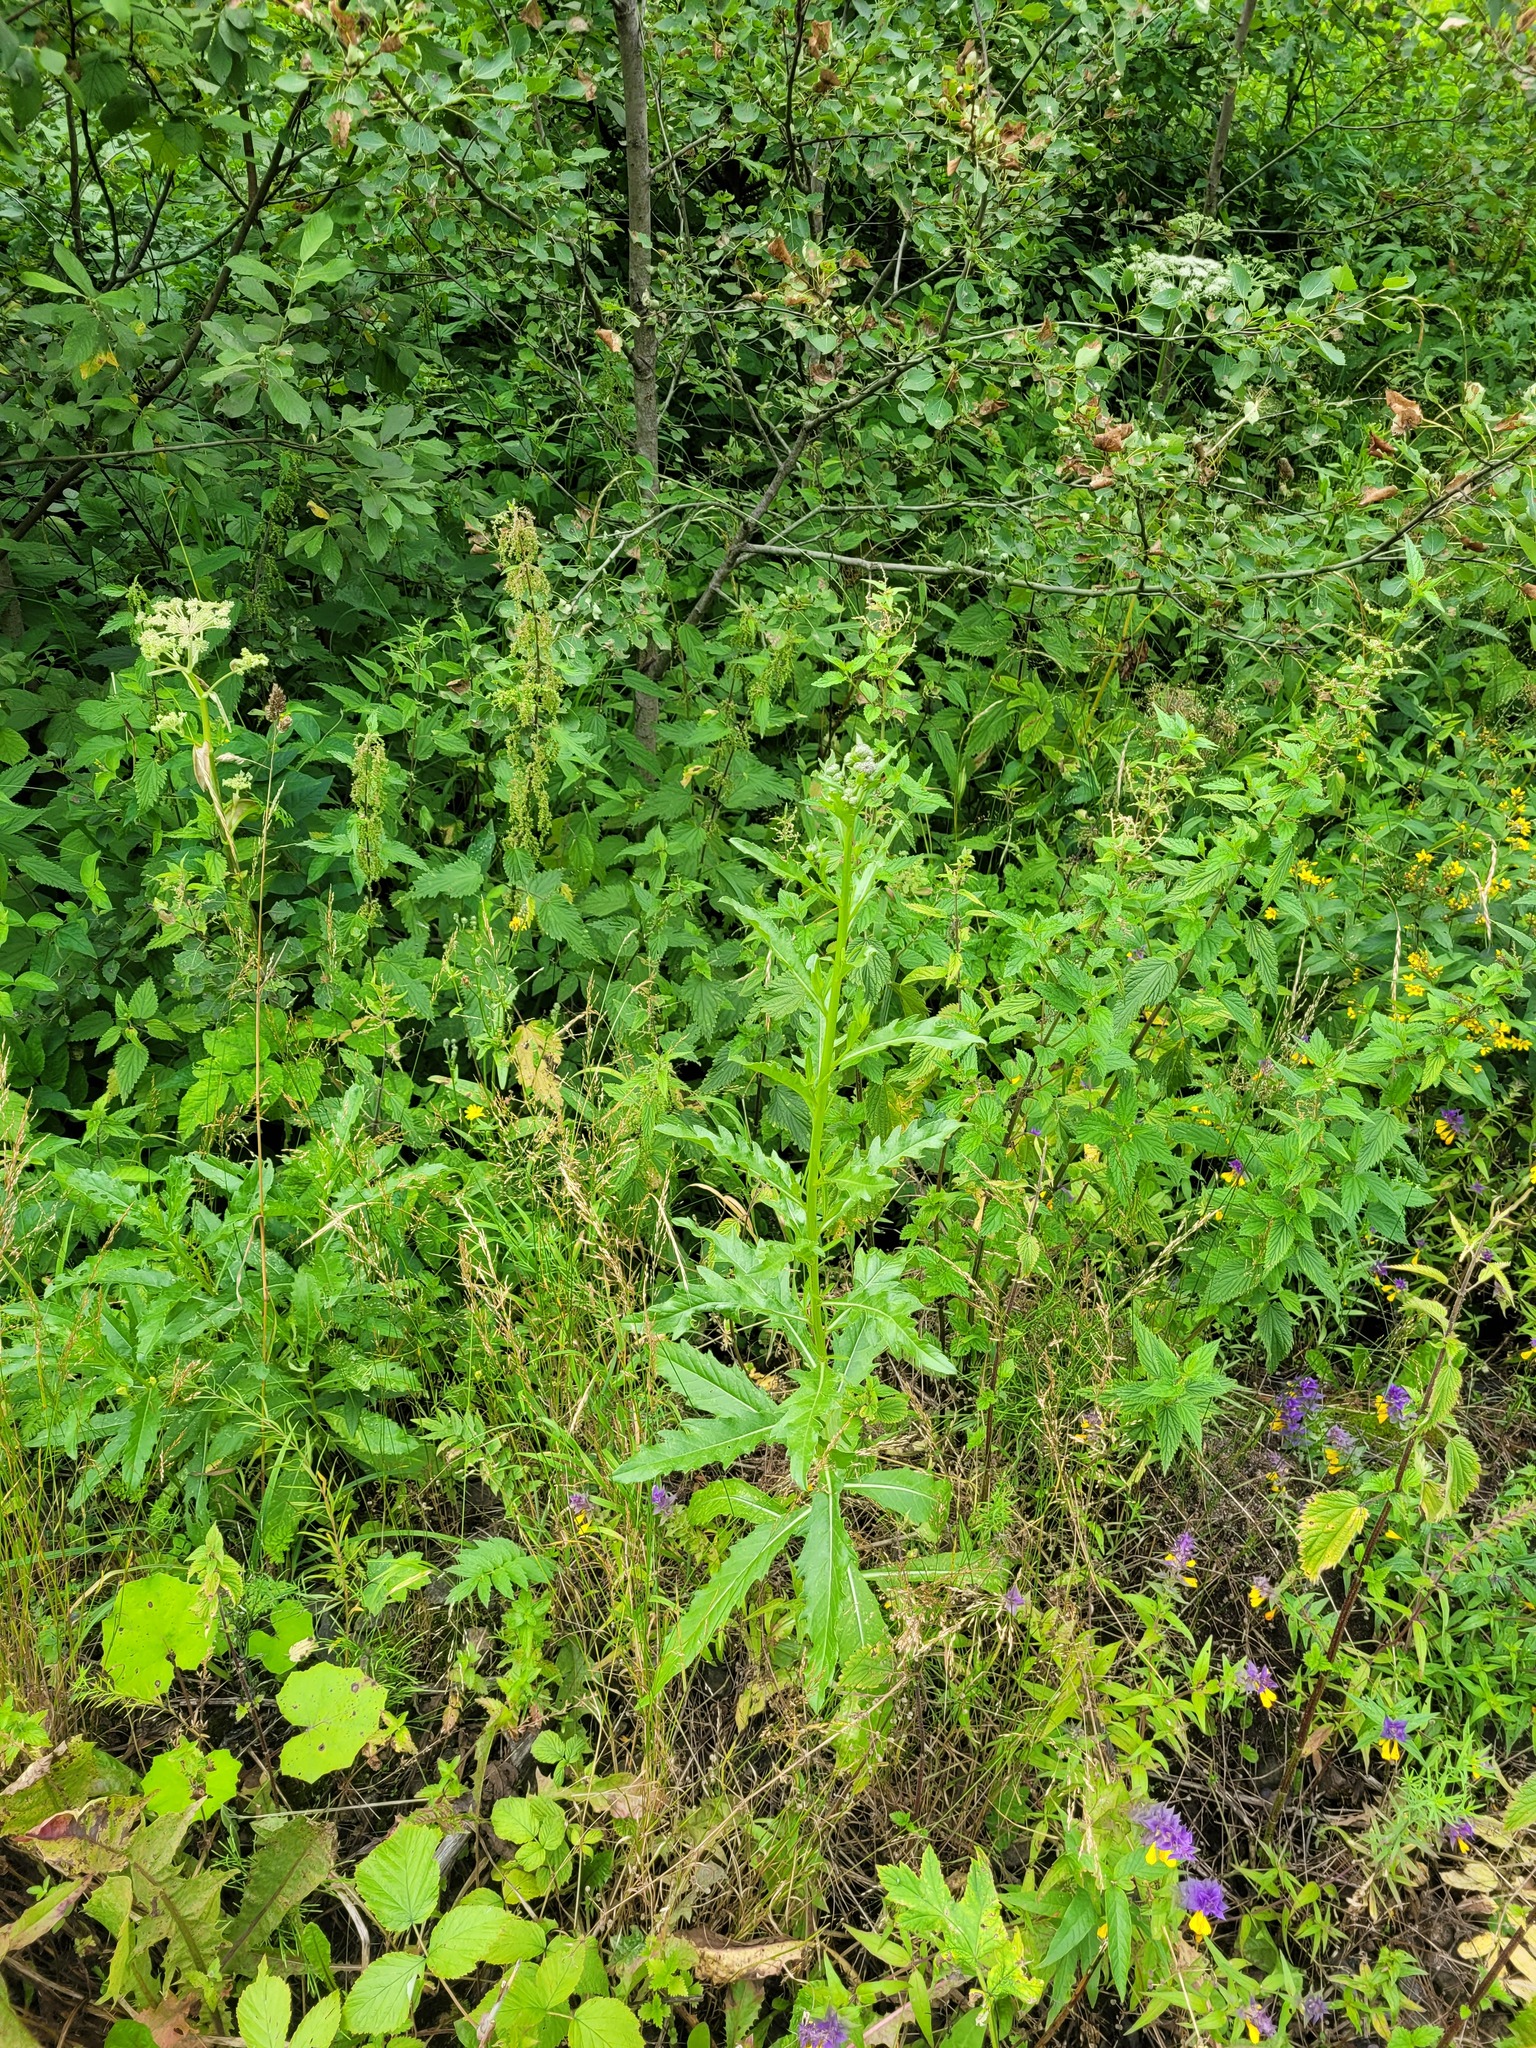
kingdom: Plantae
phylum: Tracheophyta
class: Magnoliopsida
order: Asterales
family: Asteraceae
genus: Cirsium
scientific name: Cirsium arvense
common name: Creeping thistle
